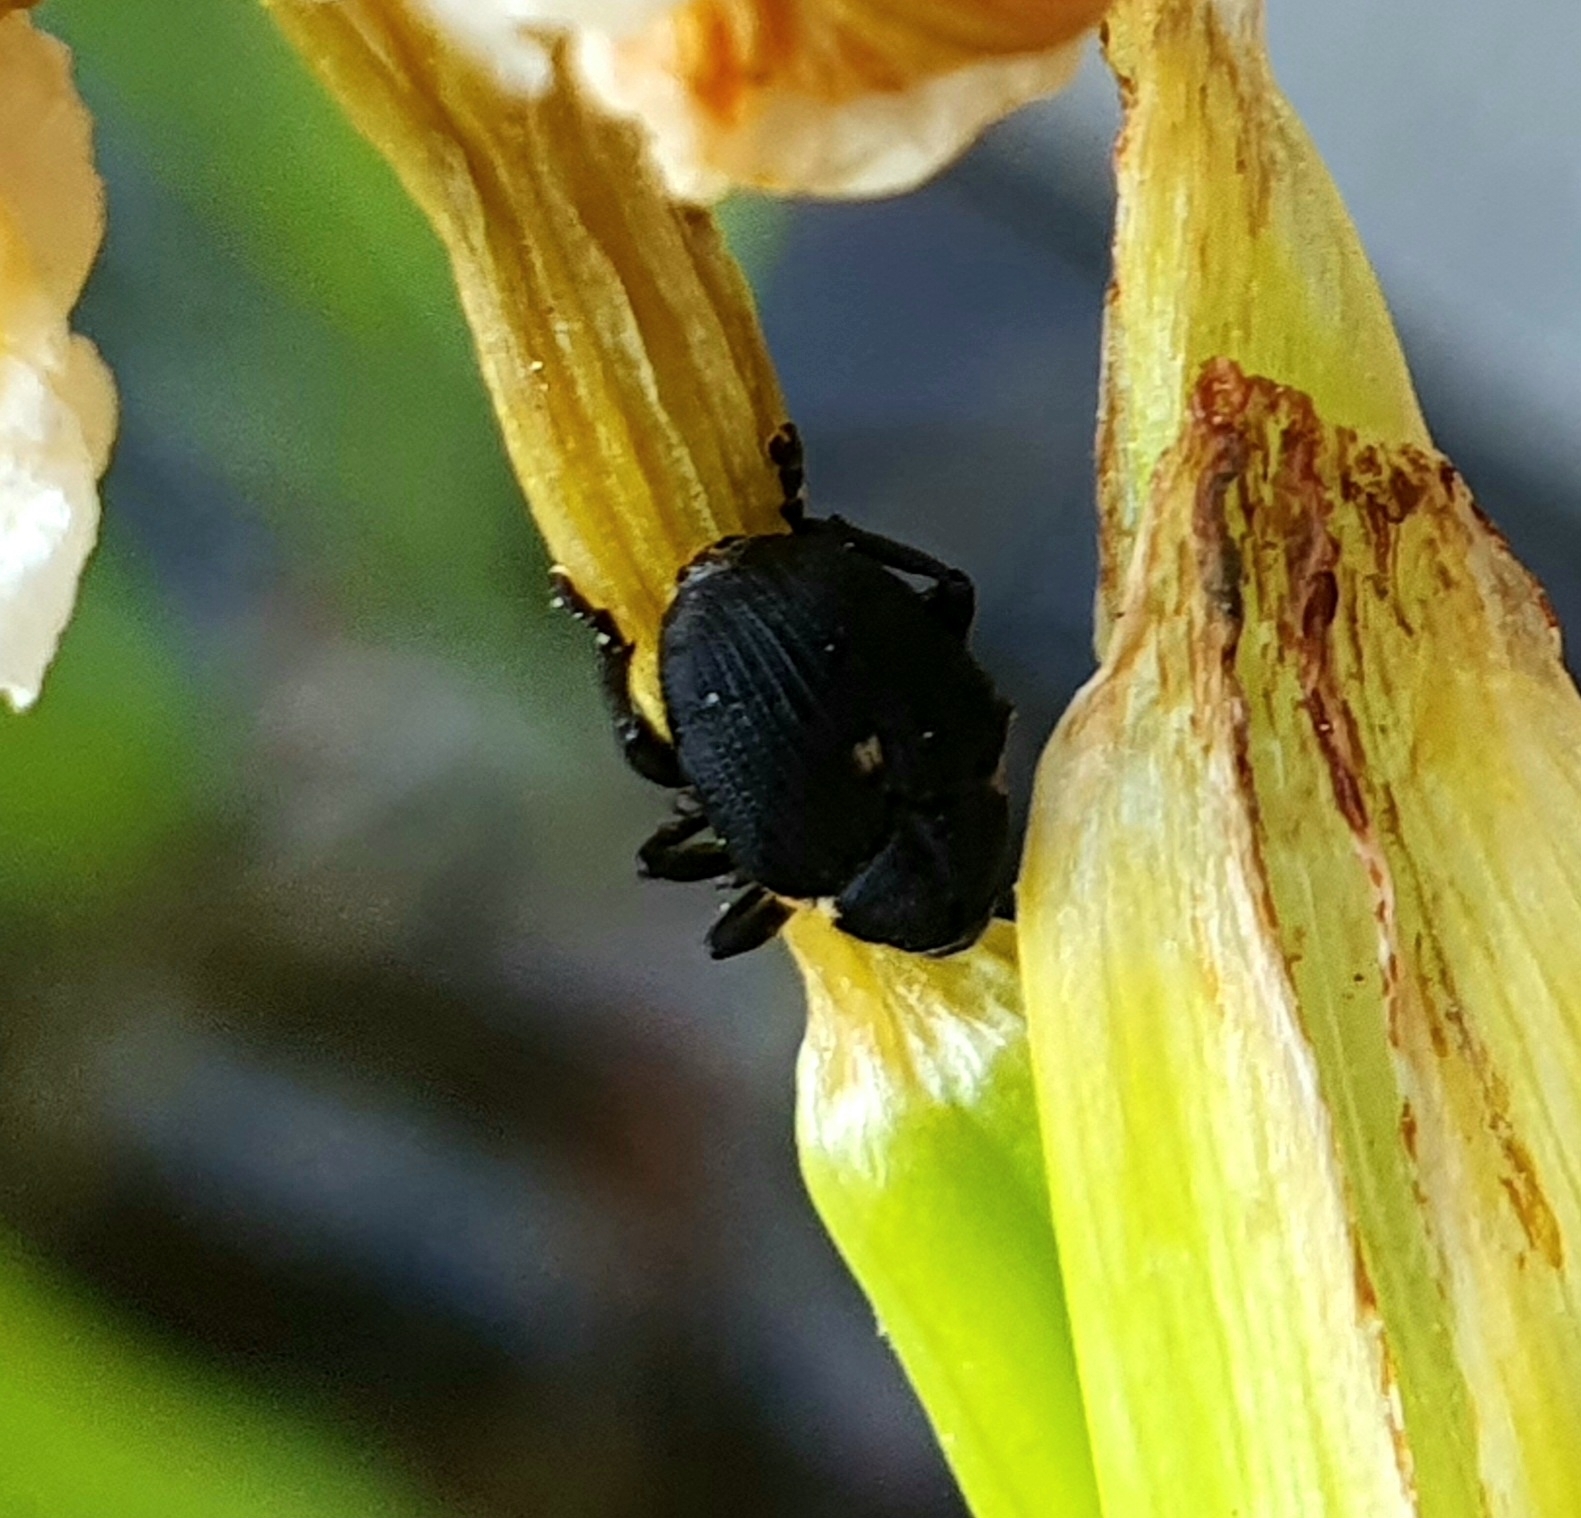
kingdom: Animalia
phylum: Arthropoda
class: Insecta
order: Coleoptera
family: Curculionidae
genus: Mononychus
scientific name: Mononychus punctumalbum
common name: Iris weevil
